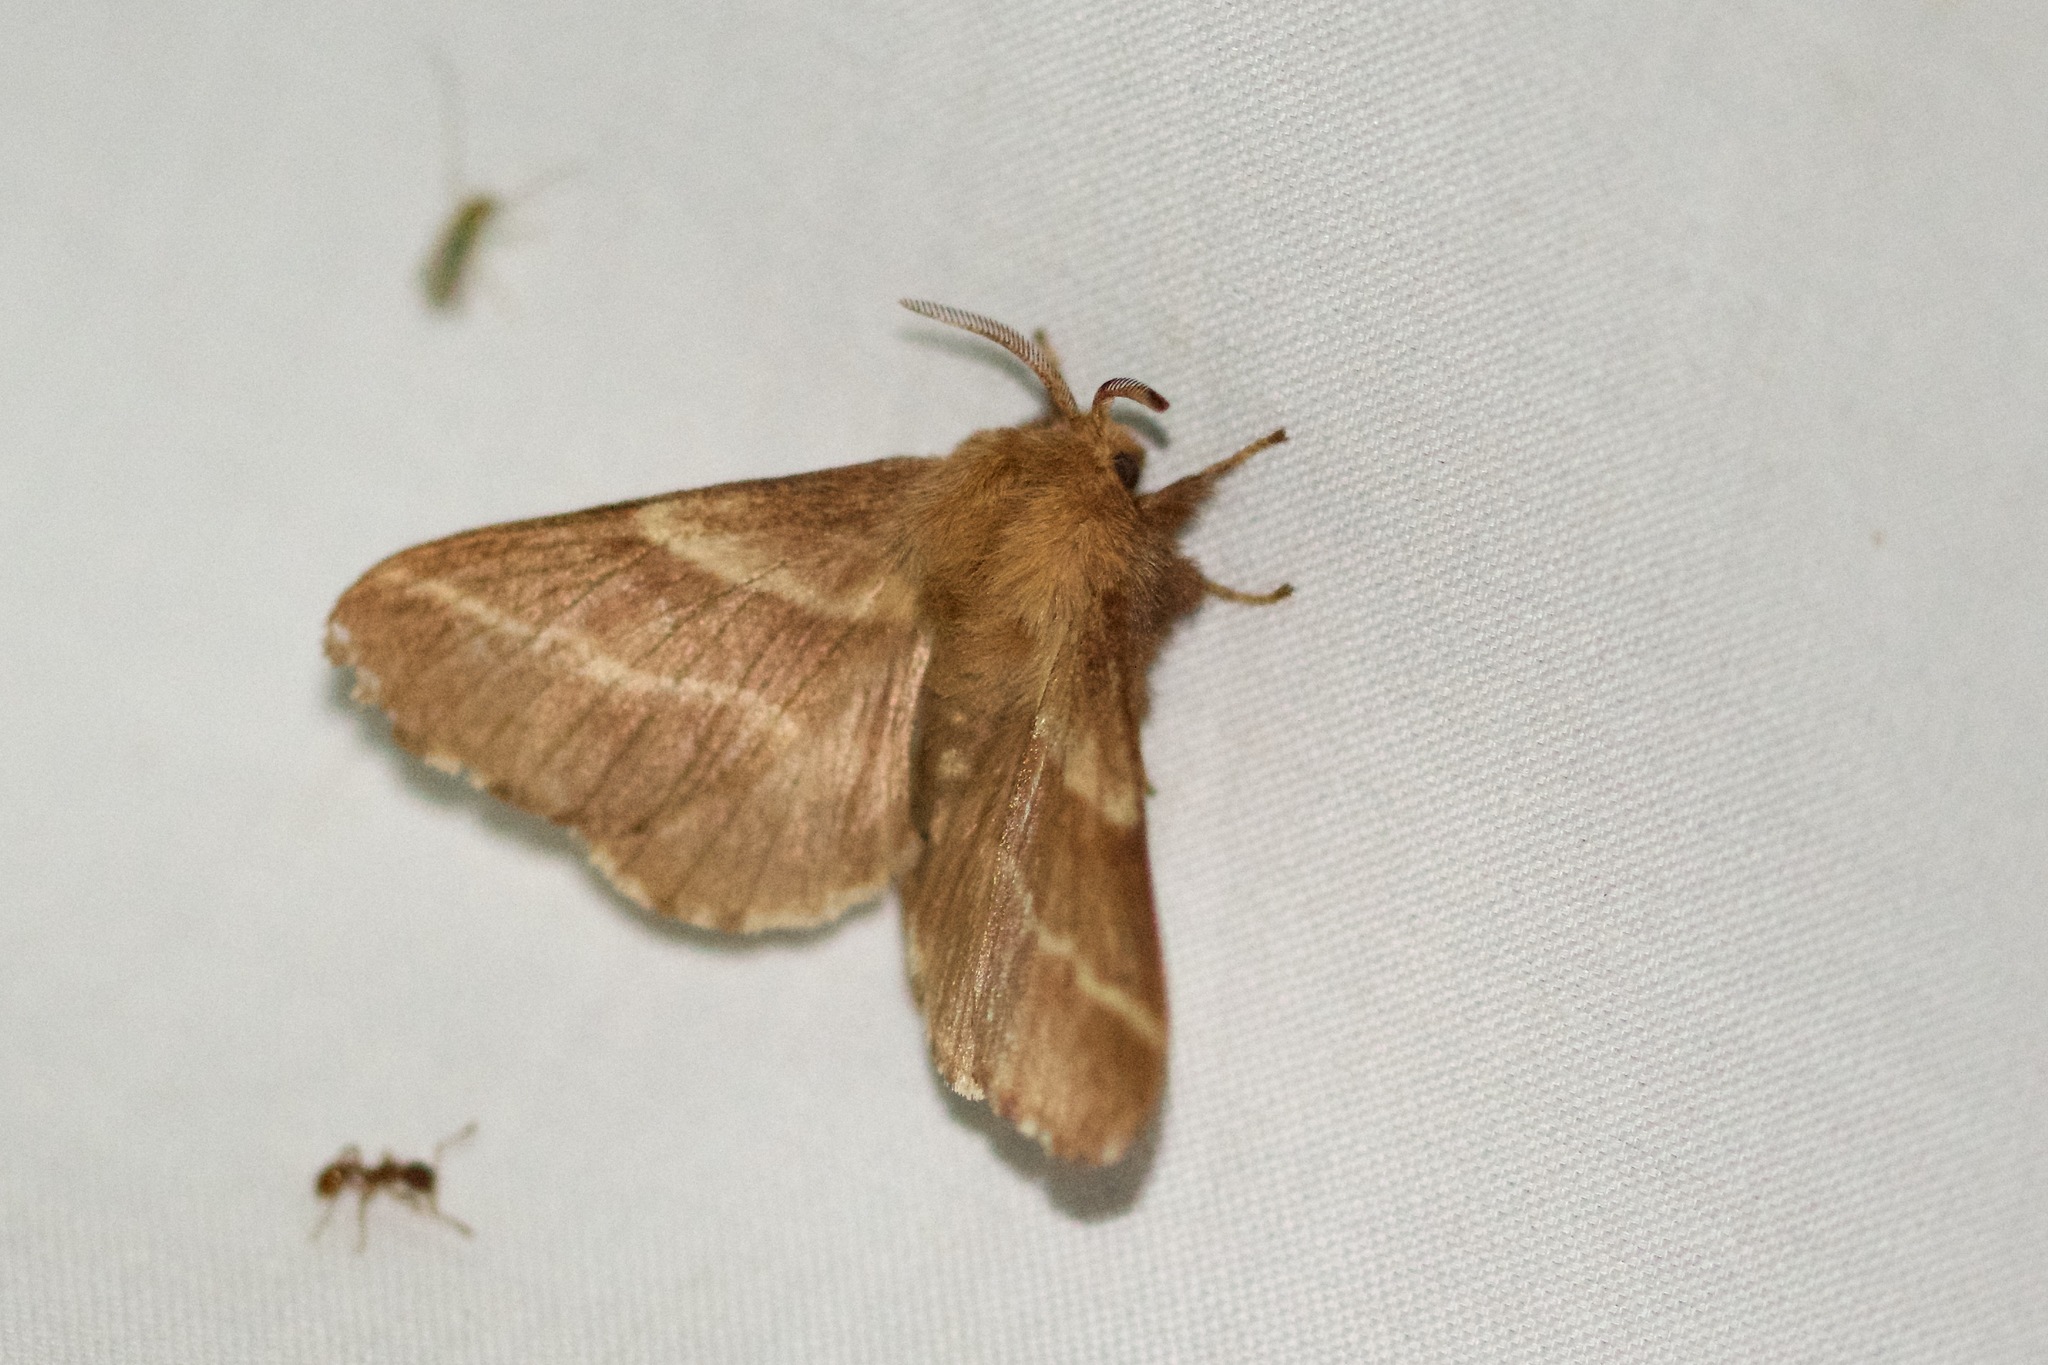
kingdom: Animalia
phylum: Arthropoda
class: Insecta
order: Lepidoptera
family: Lasiocampidae
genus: Malacosoma
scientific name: Malacosoma americana
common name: Eastern tent caterpillar moth
